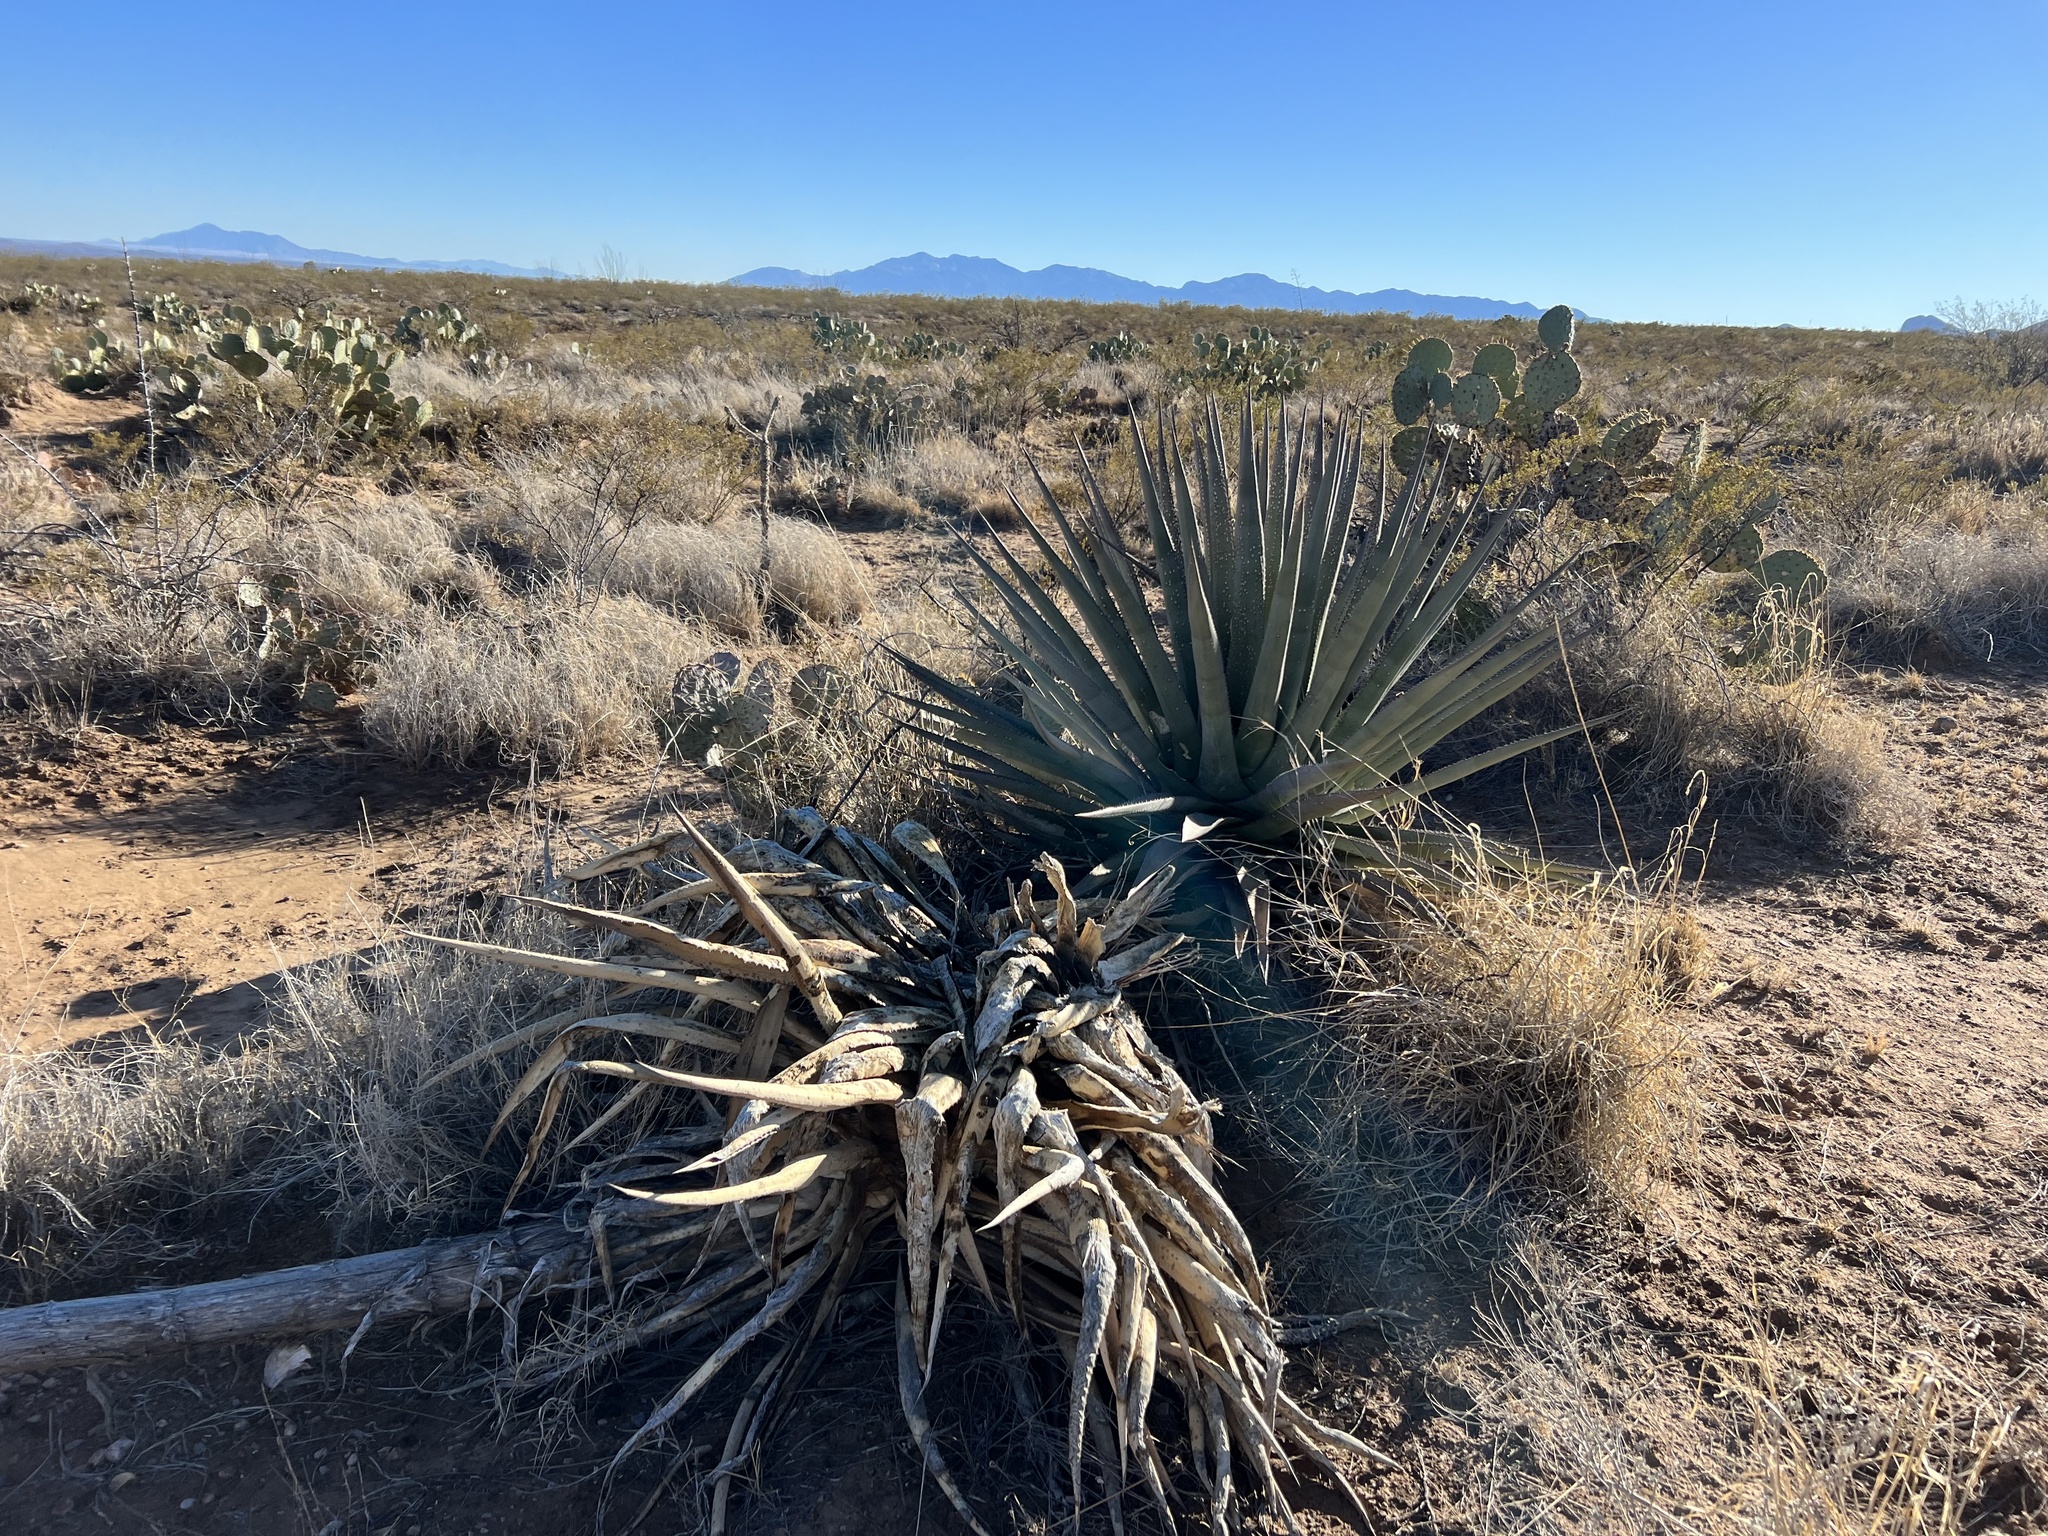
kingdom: Plantae
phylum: Tracheophyta
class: Liliopsida
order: Asparagales
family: Asparagaceae
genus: Agave
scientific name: Agave palmeri
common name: Palmer agave
